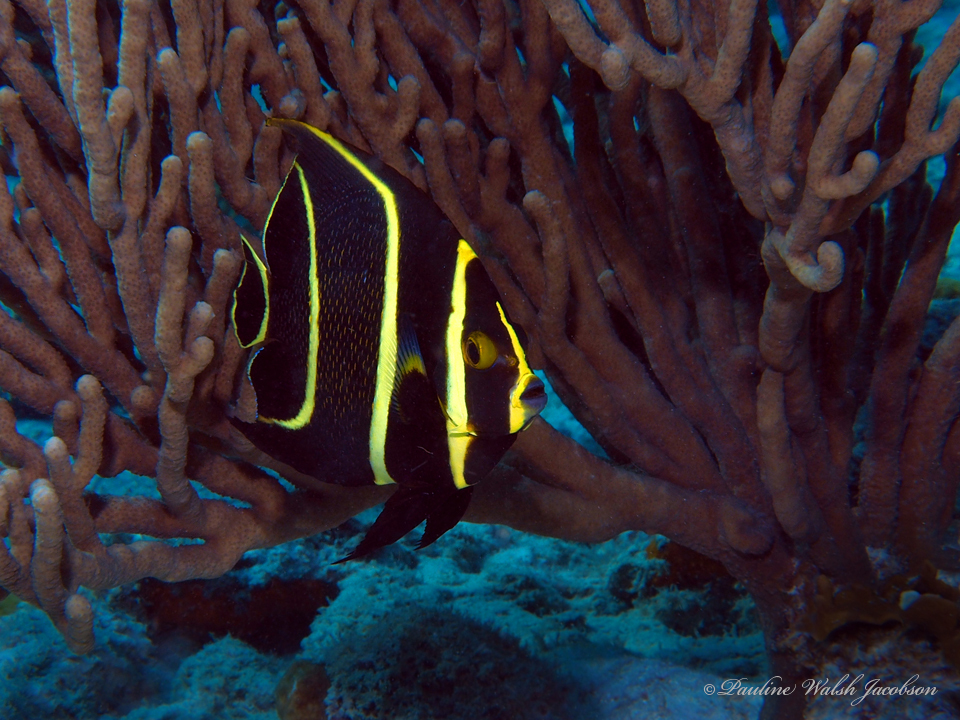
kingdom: Animalia
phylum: Chordata
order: Perciformes
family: Pomacanthidae
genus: Pomacanthus
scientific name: Pomacanthus paru
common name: French angelfish
